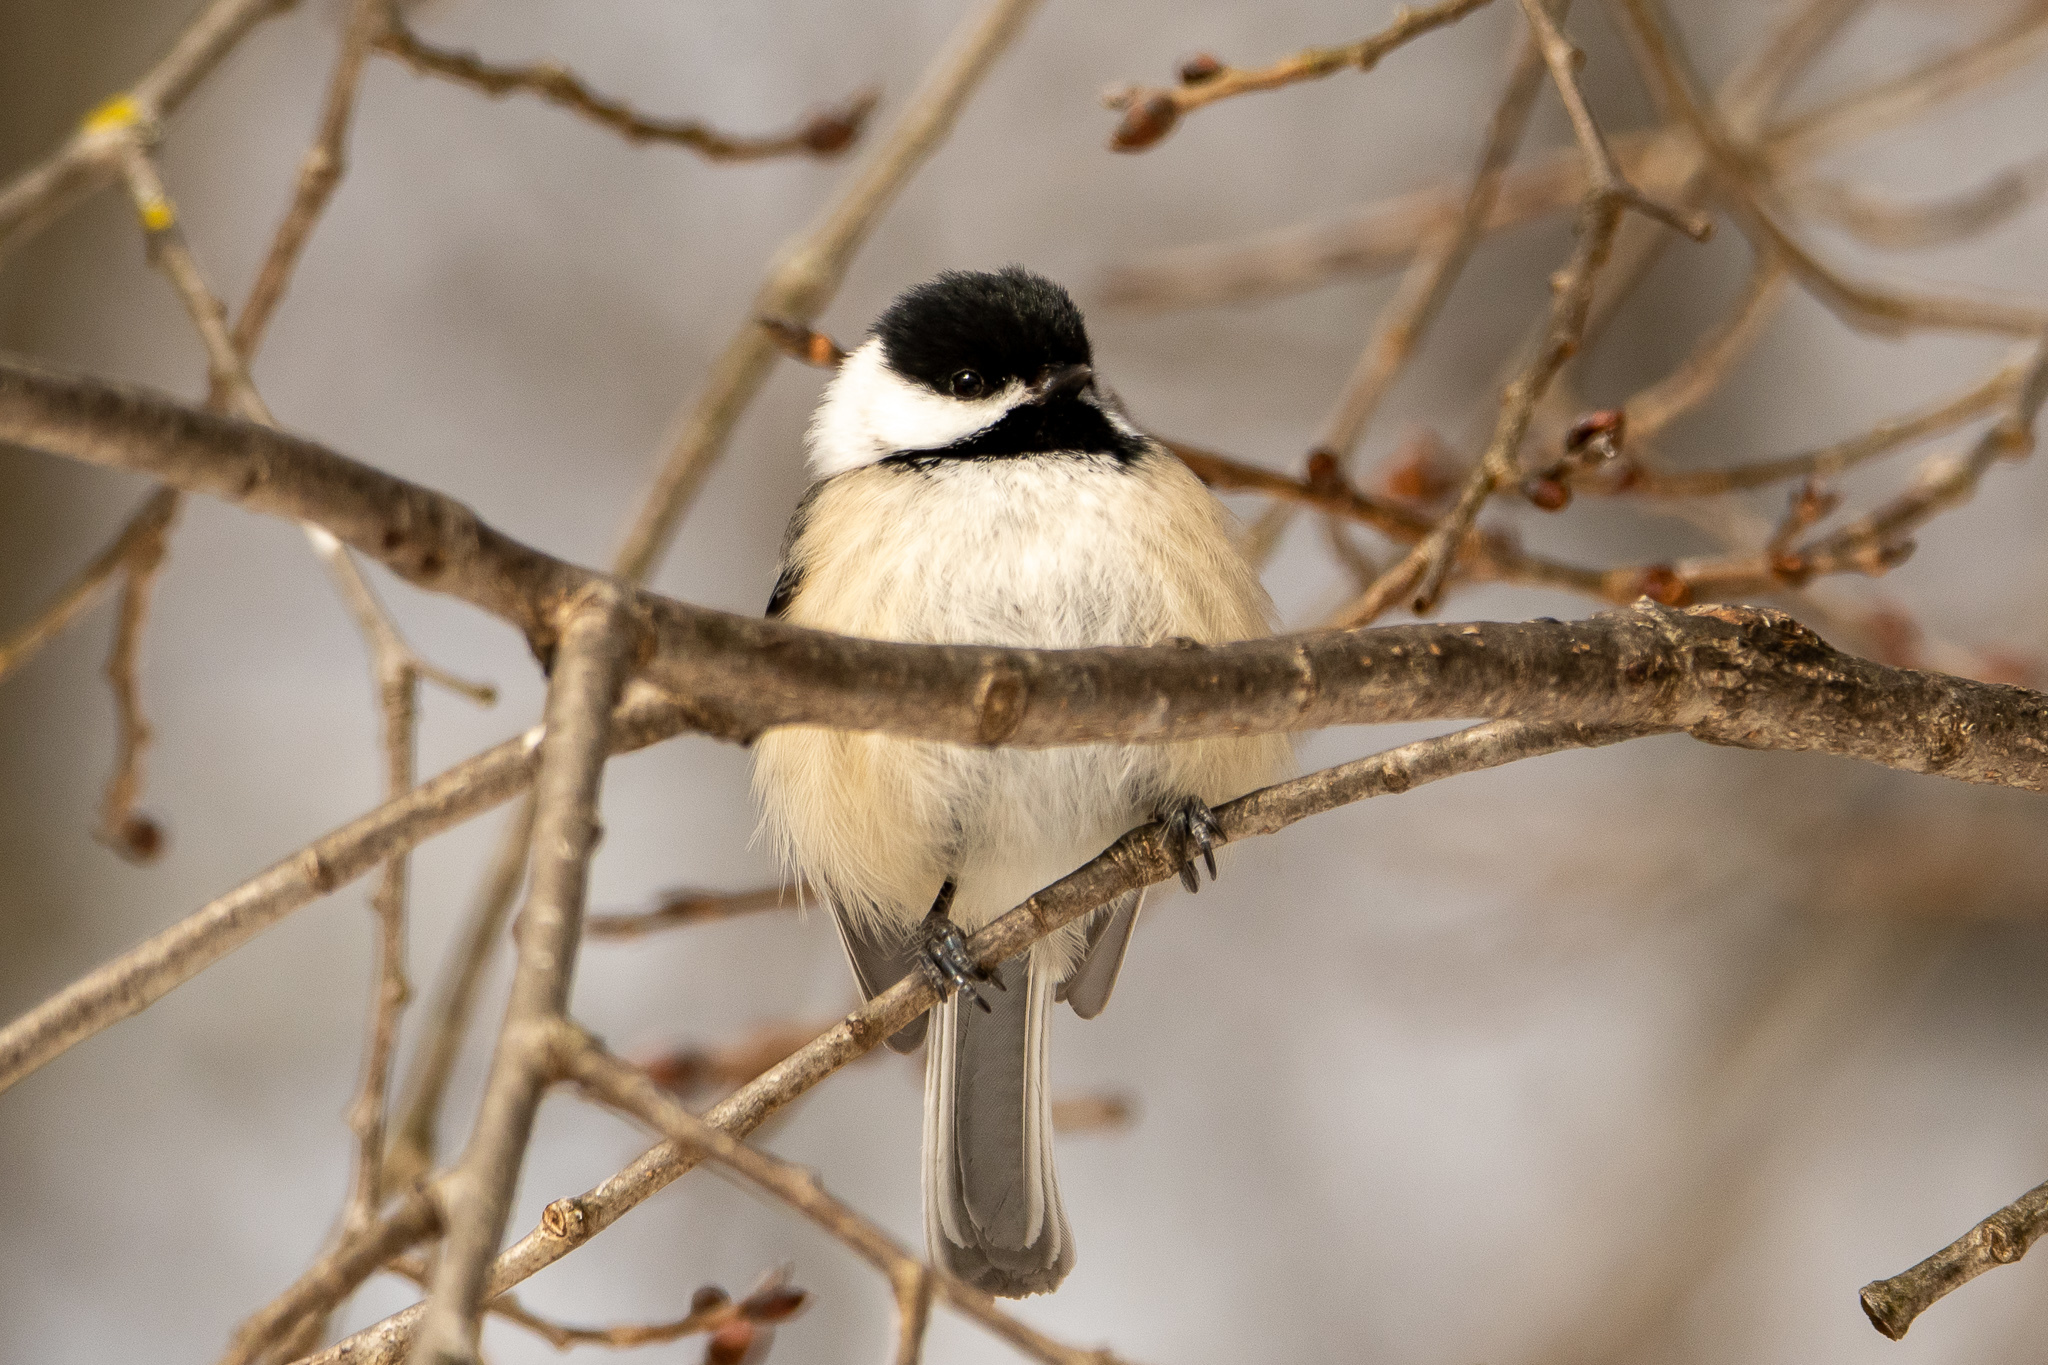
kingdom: Animalia
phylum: Chordata
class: Aves
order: Passeriformes
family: Paridae
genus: Poecile
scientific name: Poecile atricapillus
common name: Black-capped chickadee
